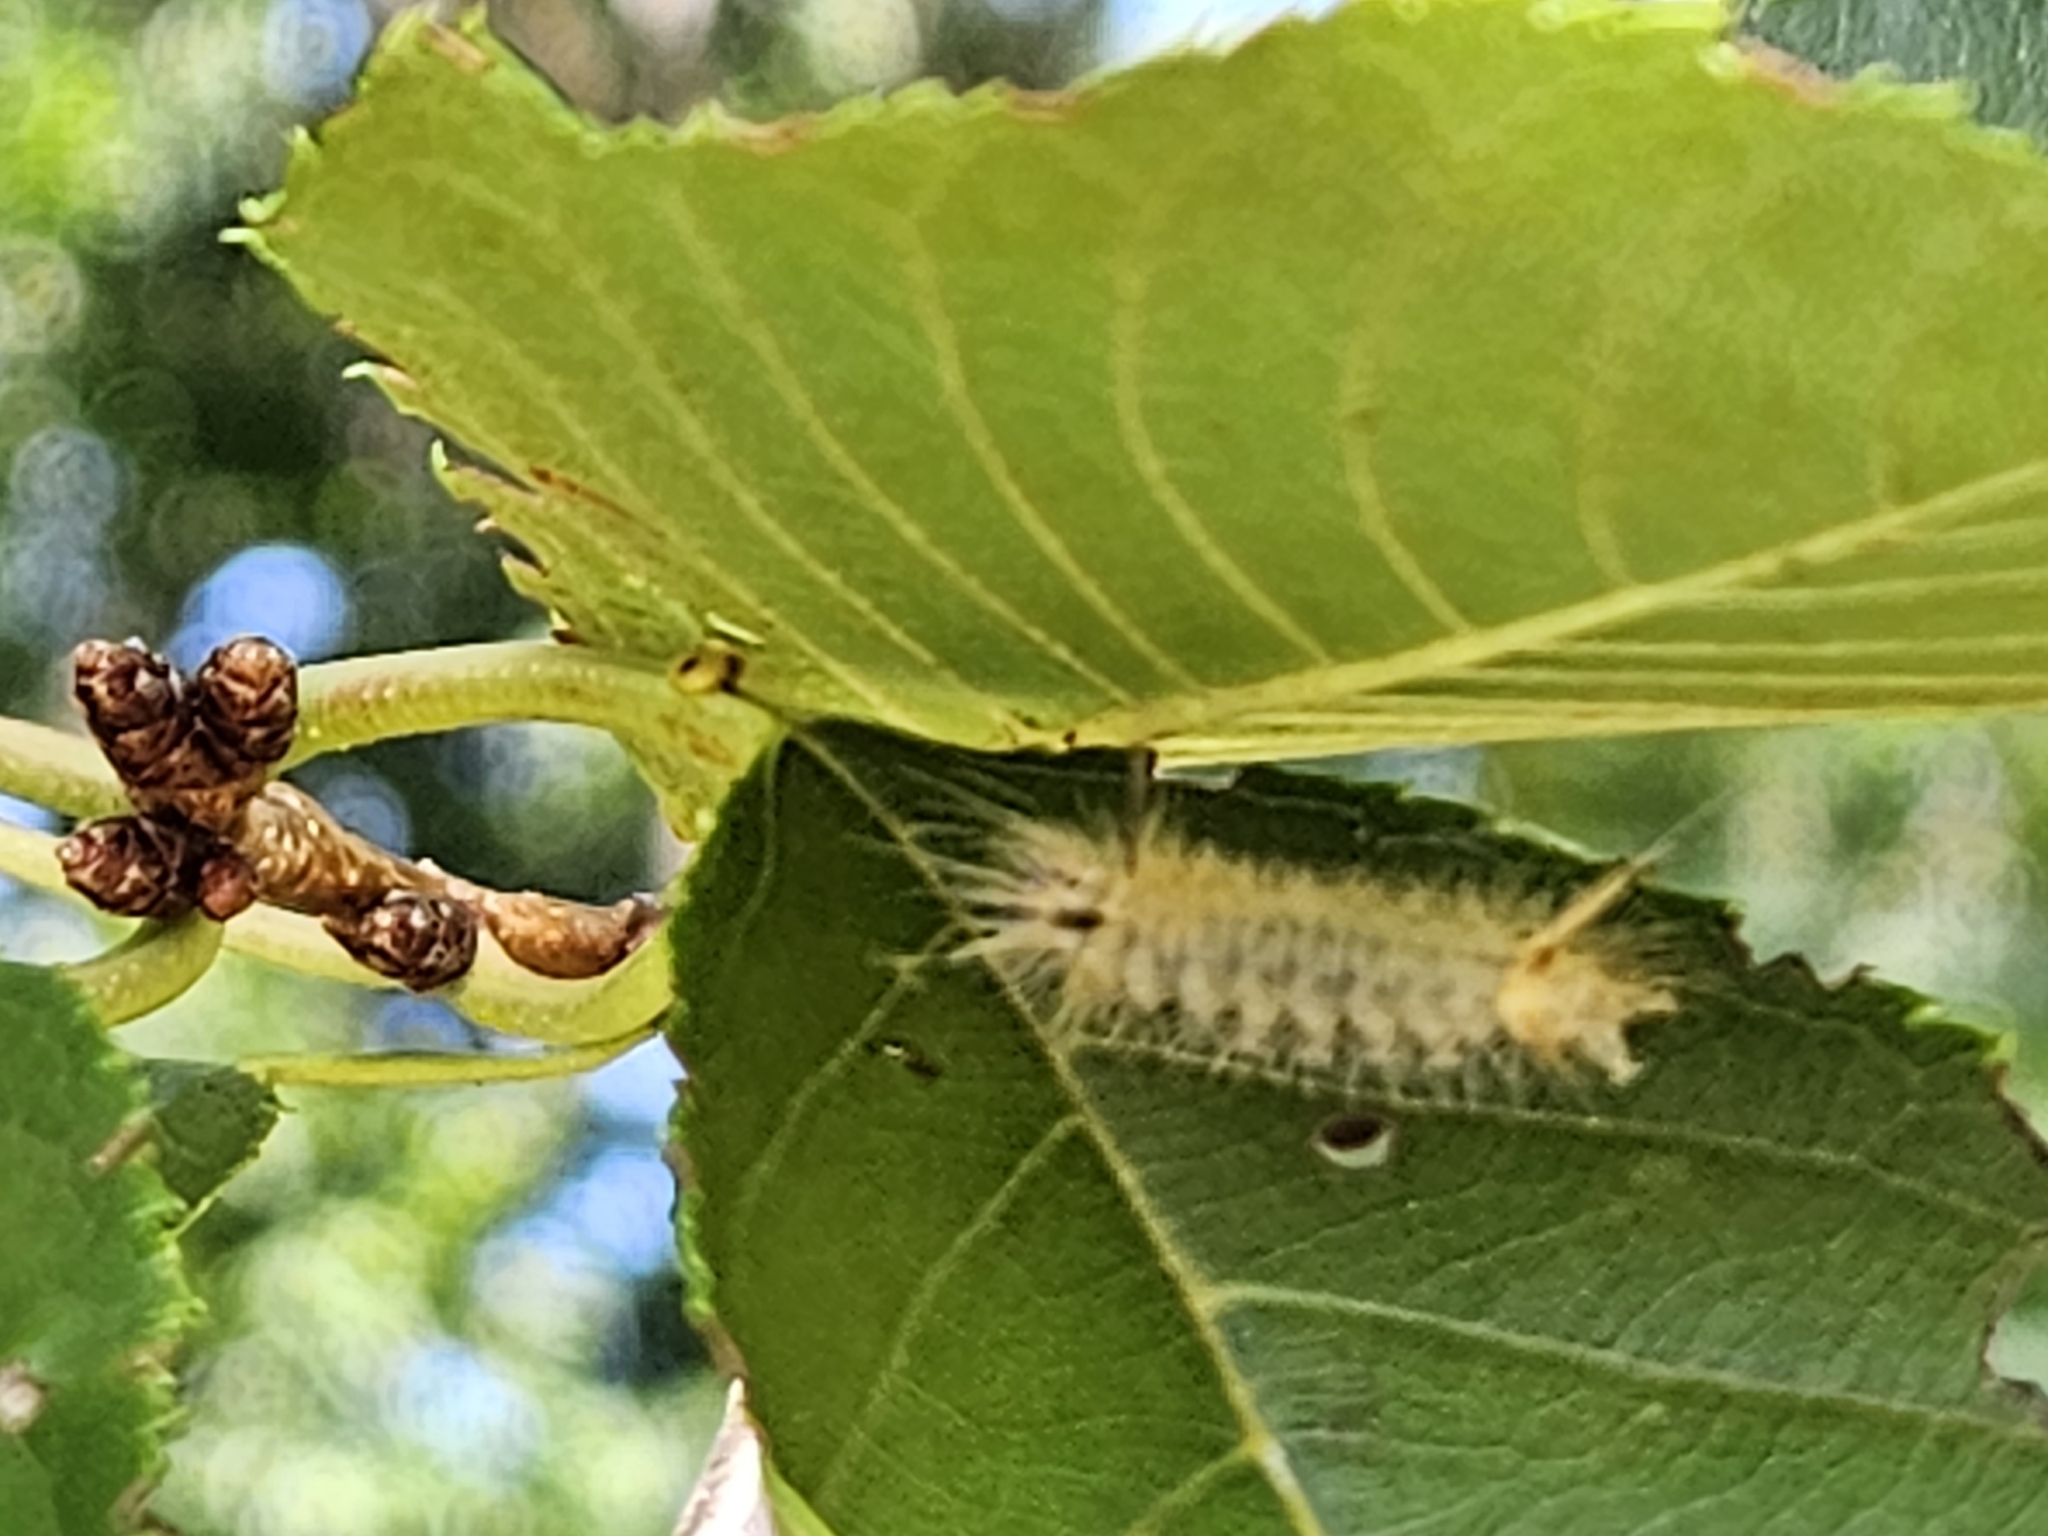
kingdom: Animalia
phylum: Arthropoda
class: Insecta
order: Lepidoptera
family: Erebidae
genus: Halysidota
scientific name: Halysidota tessellaris
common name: Banded tussock moth
